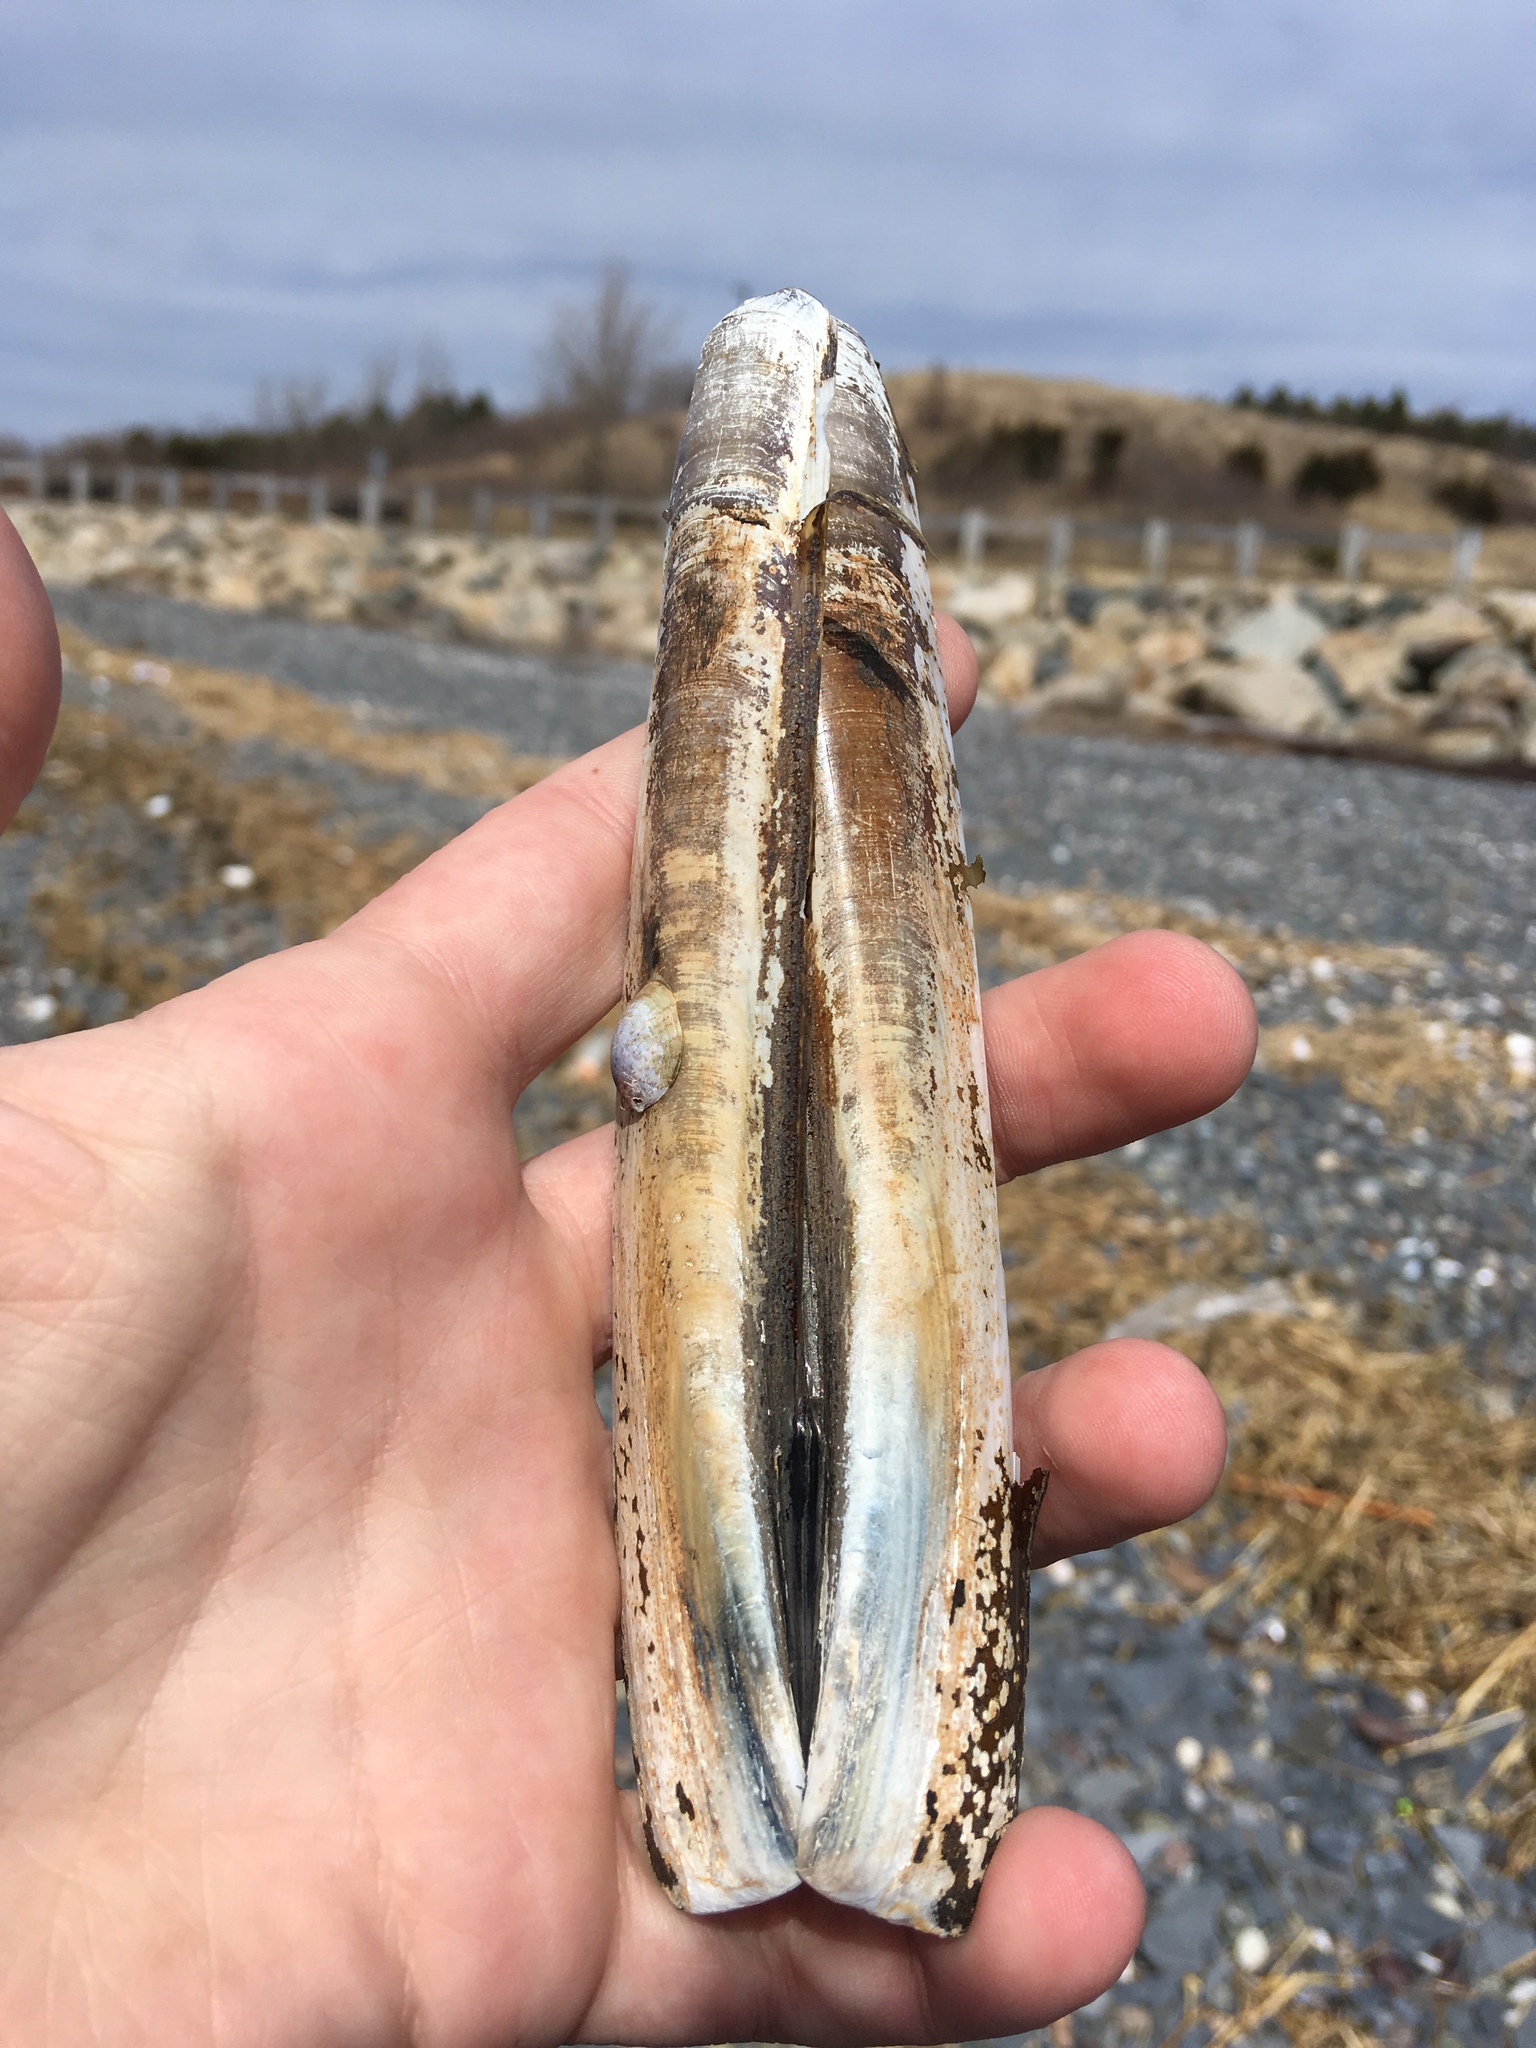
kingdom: Animalia
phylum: Mollusca
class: Bivalvia
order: Adapedonta
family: Pharidae
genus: Ensis
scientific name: Ensis leei
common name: American jack knife clam
